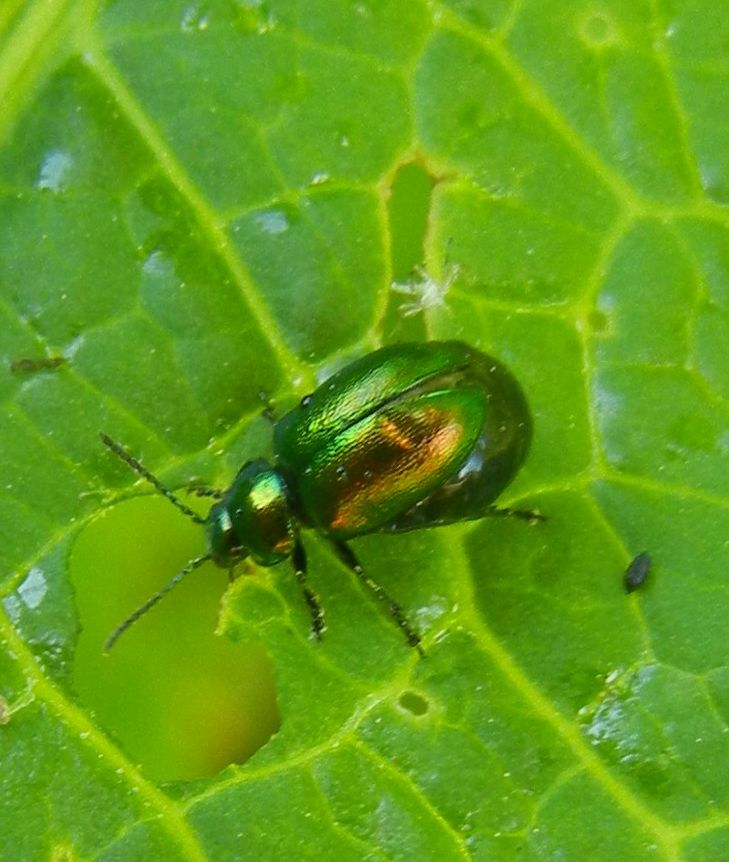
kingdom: Animalia
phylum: Arthropoda
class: Insecta
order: Coleoptera
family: Chrysomelidae
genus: Gastrophysa
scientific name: Gastrophysa viridula
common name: Green dock beetle
